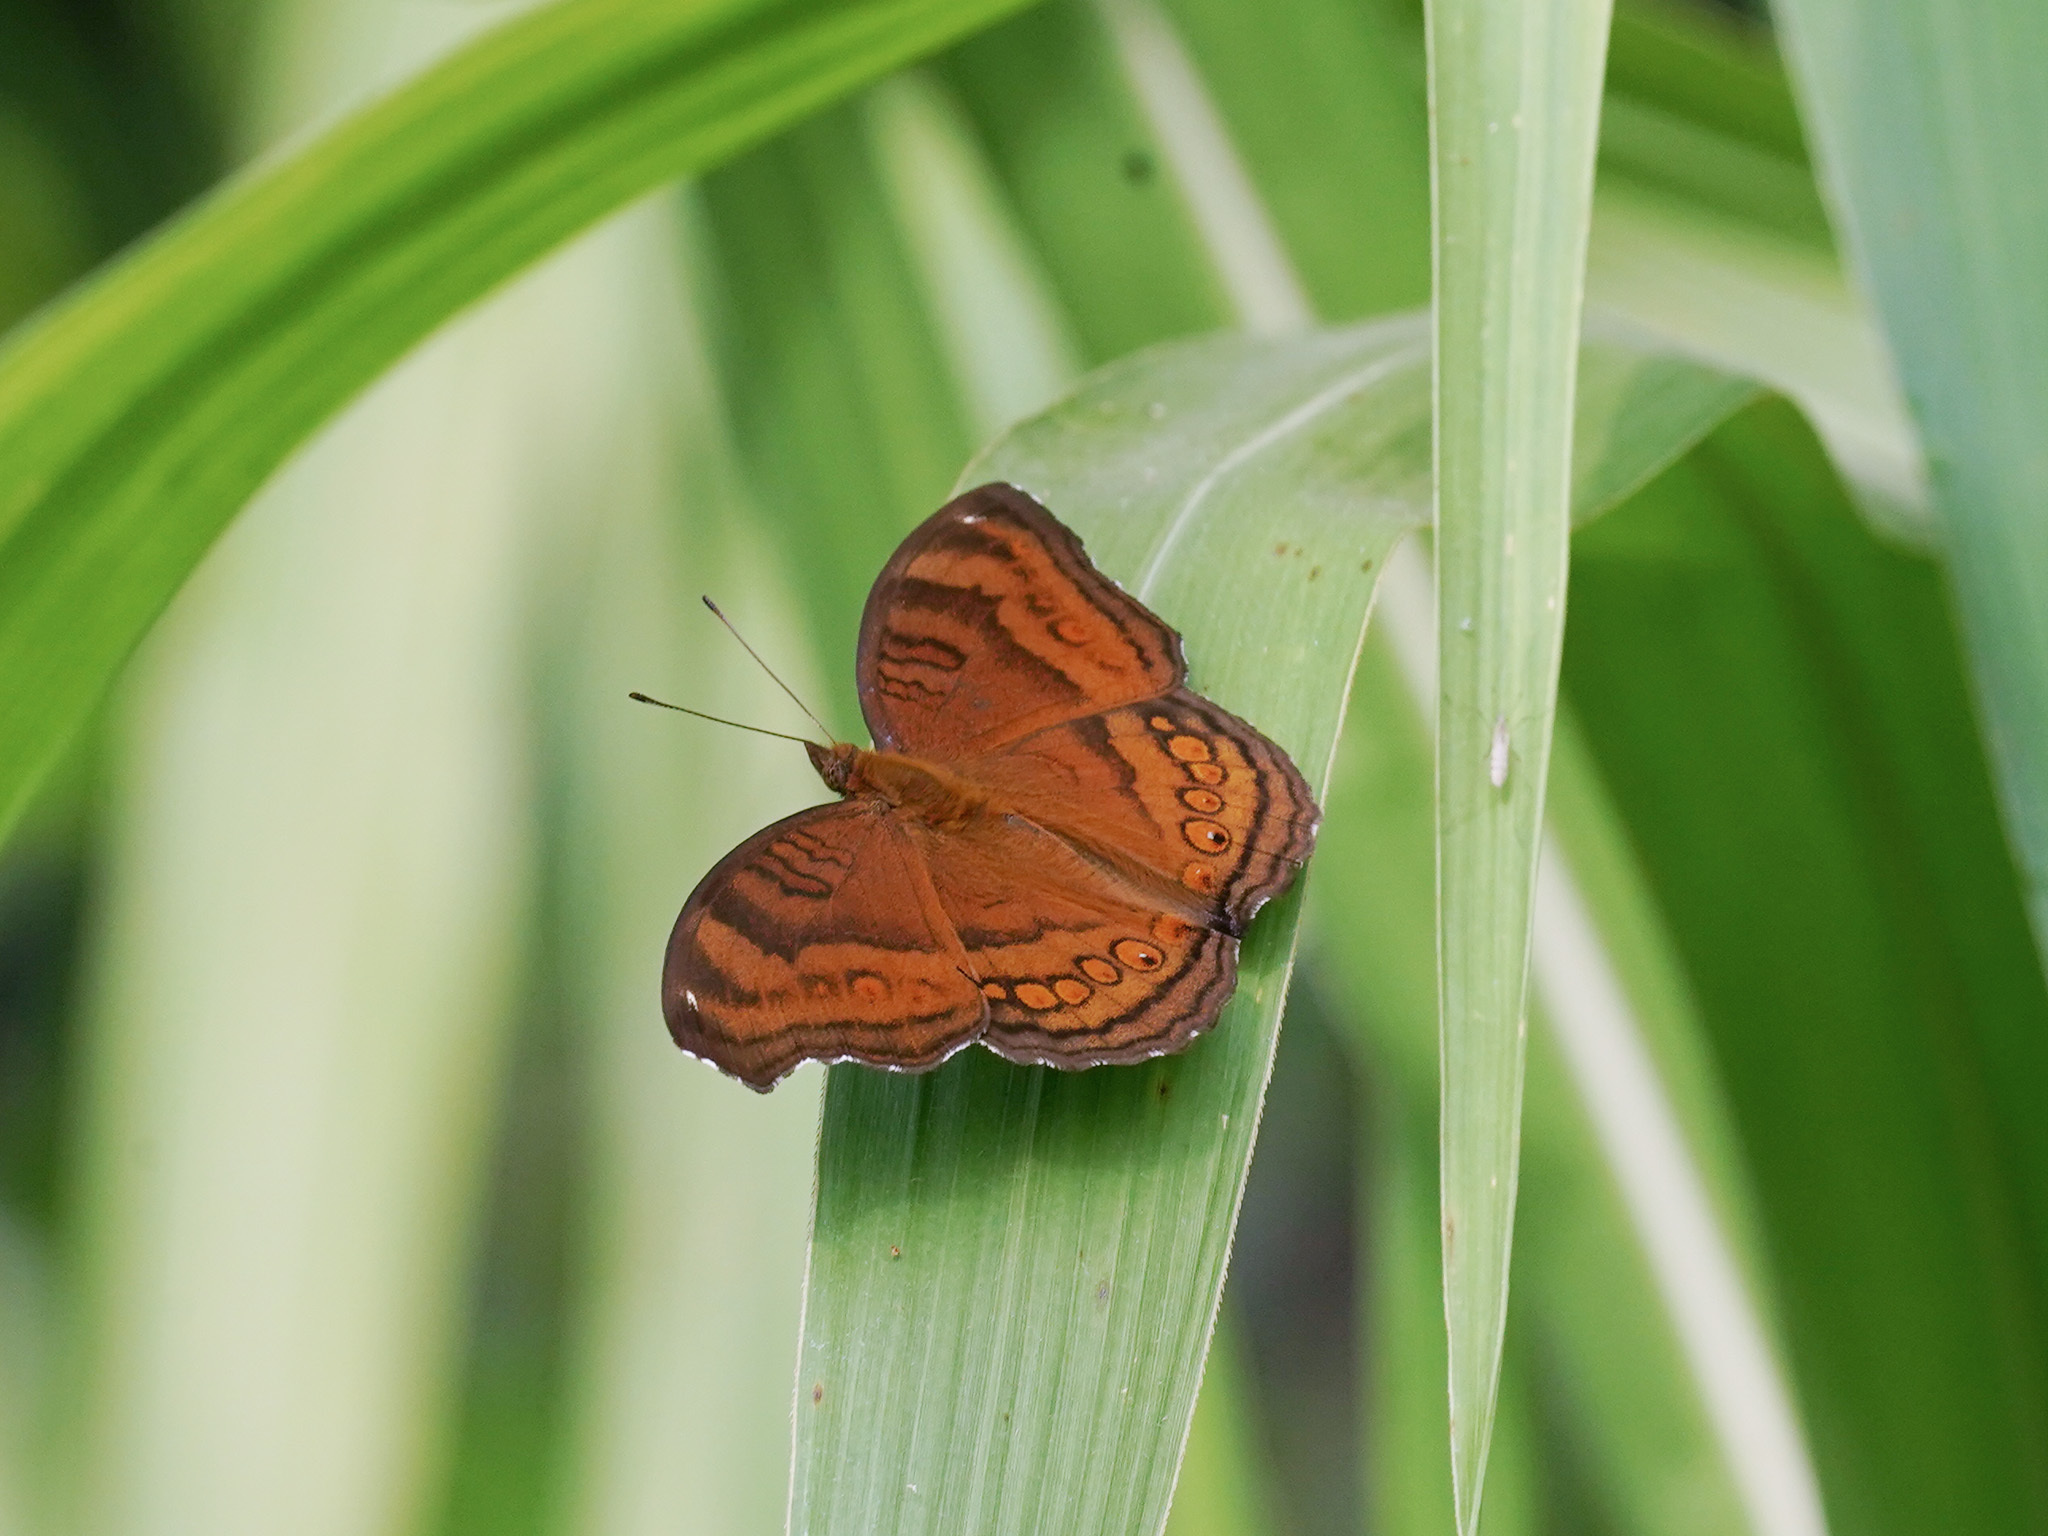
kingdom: Animalia
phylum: Arthropoda
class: Insecta
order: Lepidoptera
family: Nymphalidae
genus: Junonia
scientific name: Junonia hedonia
